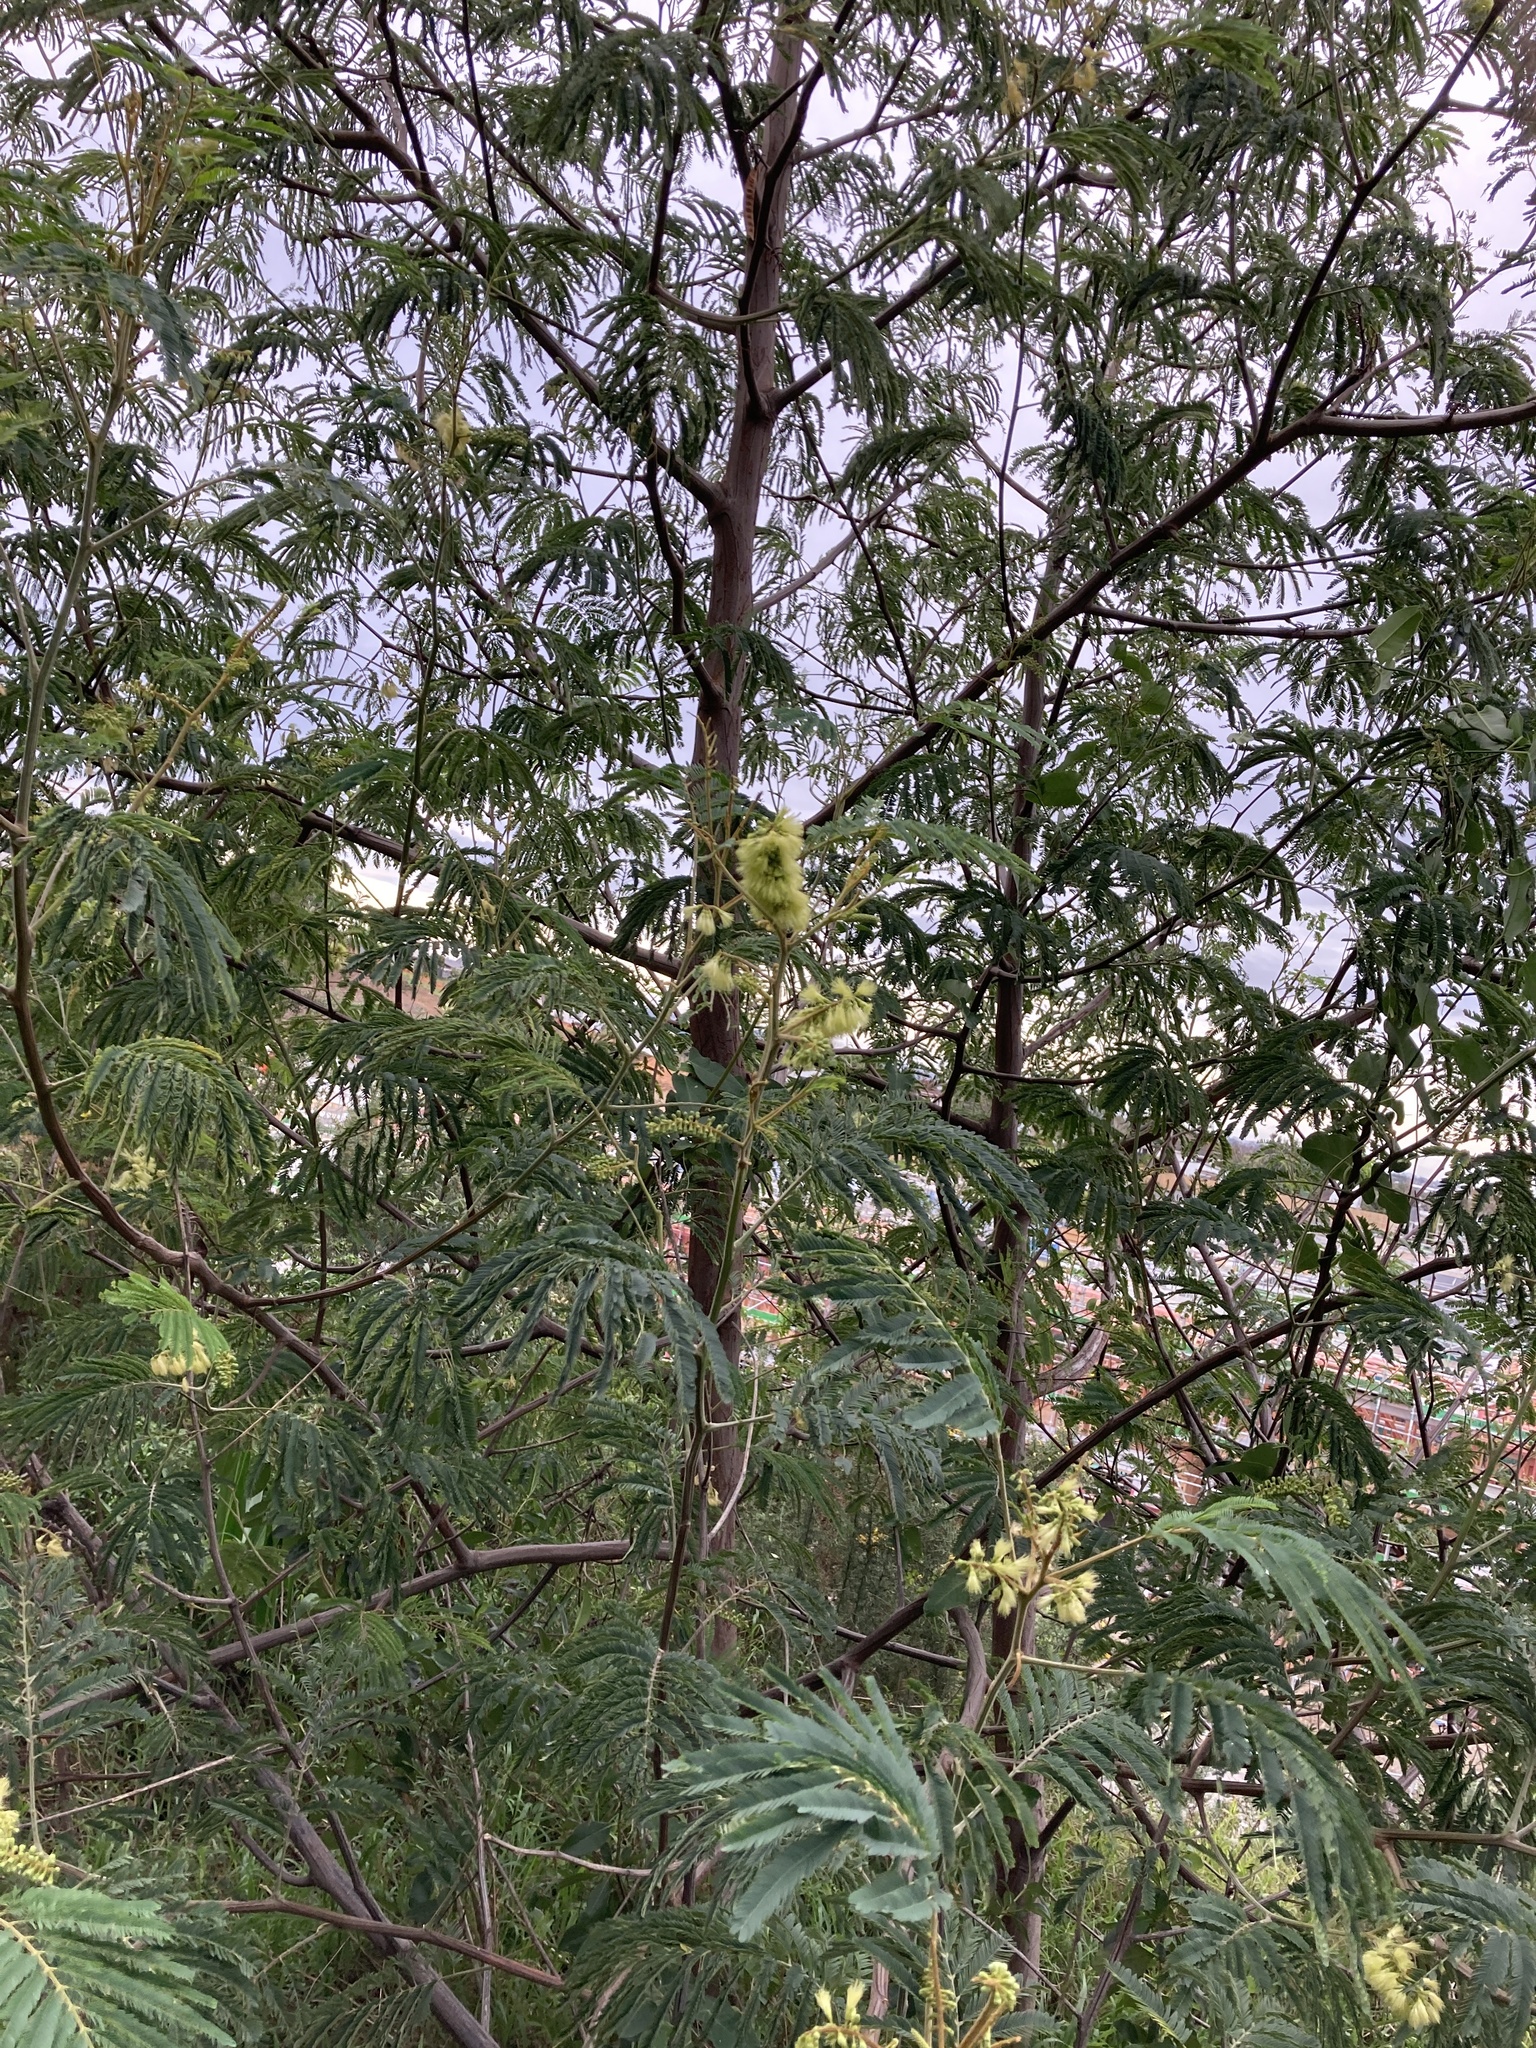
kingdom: Plantae
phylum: Tracheophyta
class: Magnoliopsida
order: Fabales
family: Fabaceae
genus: Paraserianthes
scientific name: Paraserianthes lophantha
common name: Plume albizia
